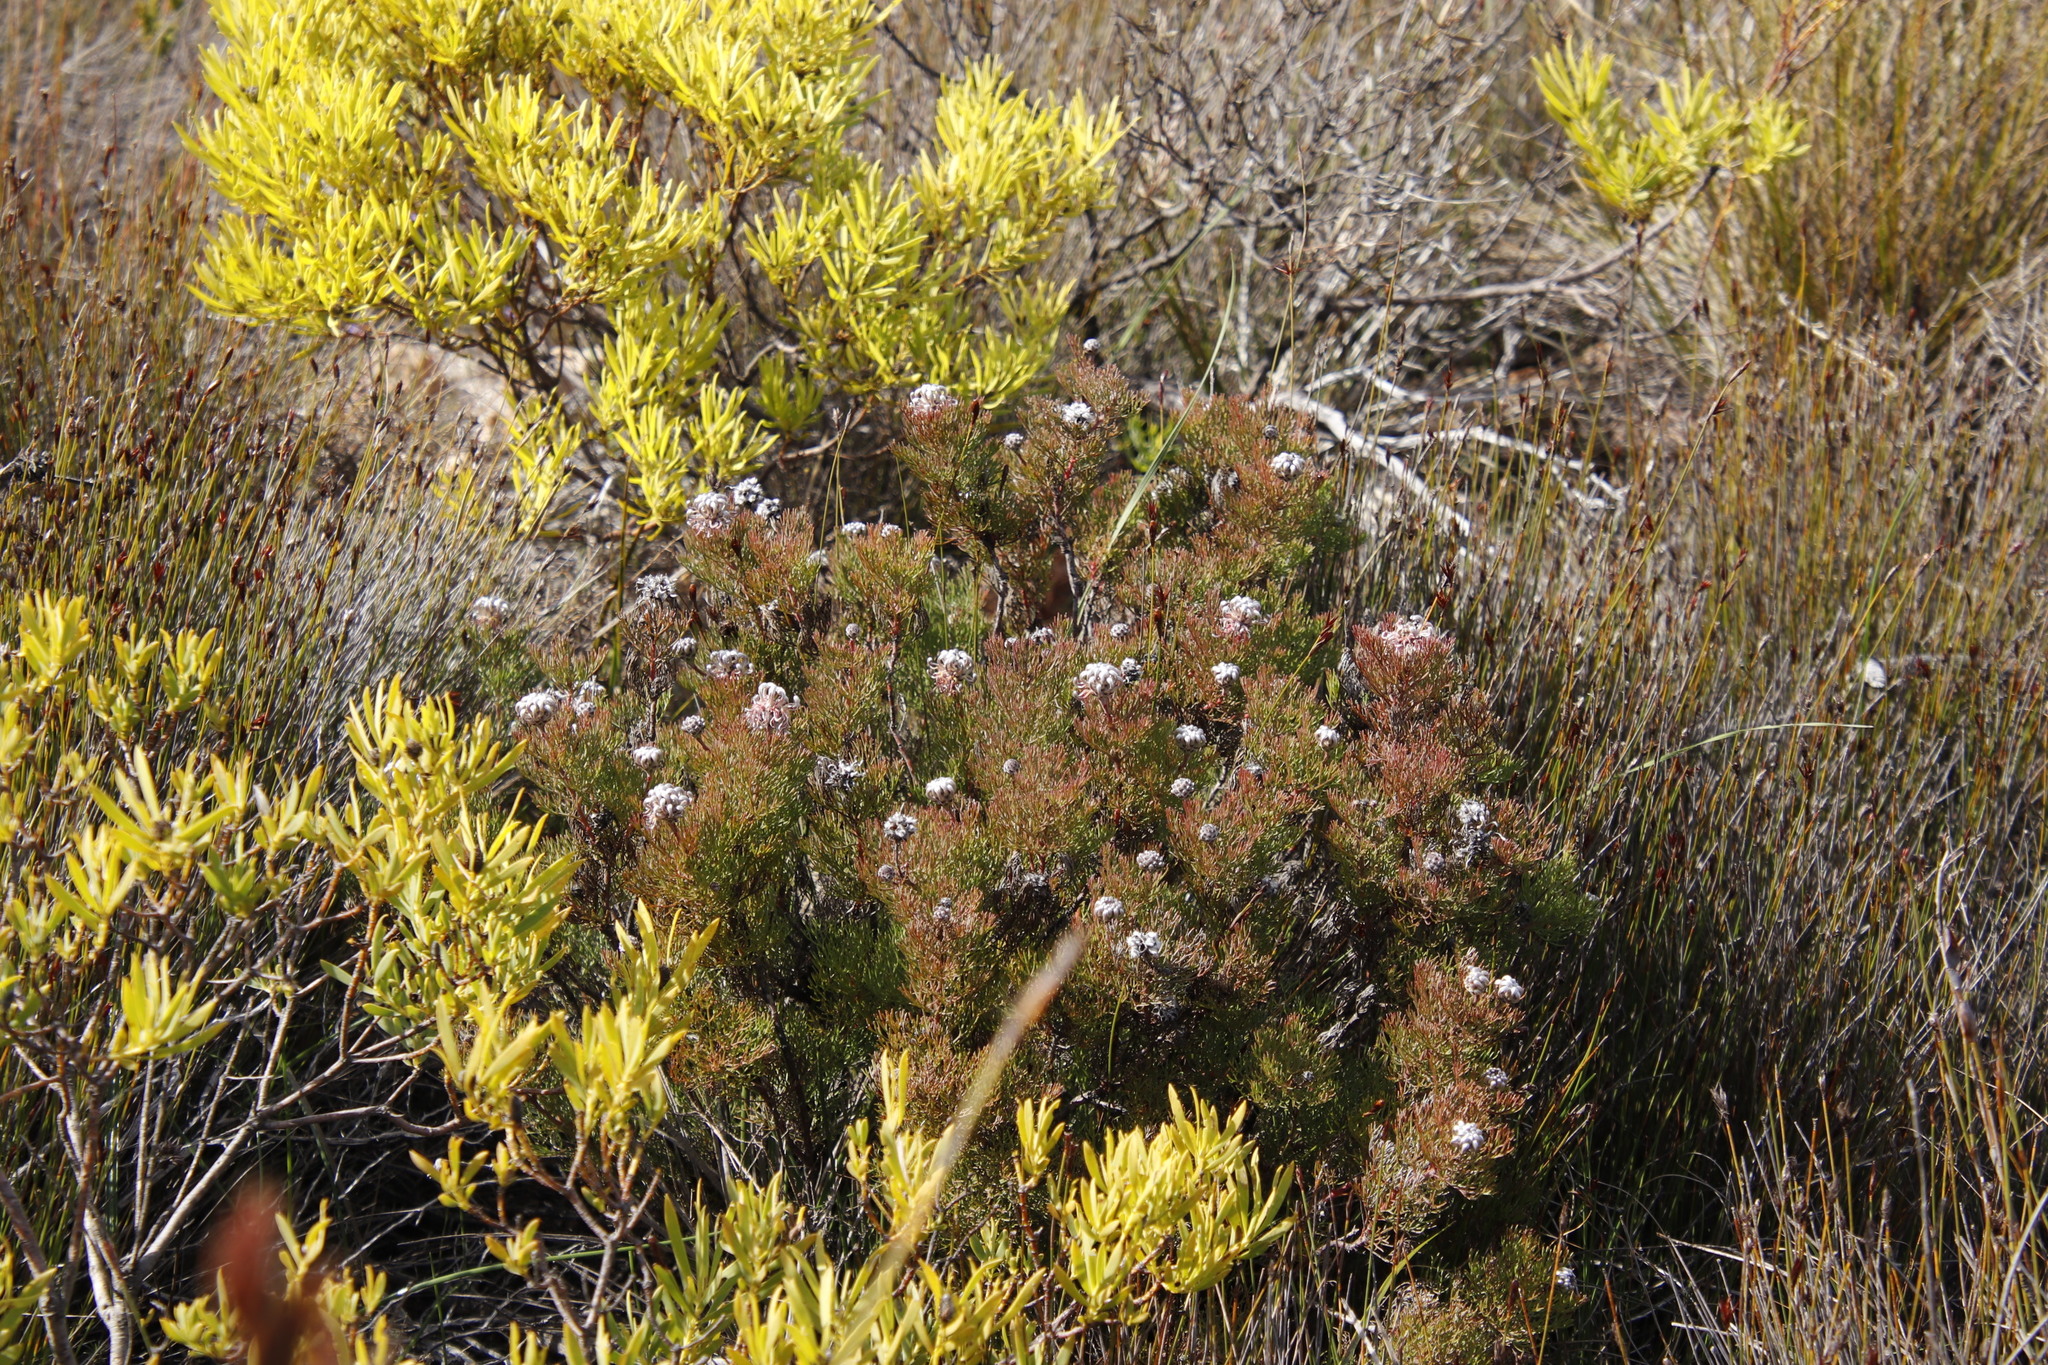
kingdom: Plantae
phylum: Tracheophyta
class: Magnoliopsida
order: Proteales
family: Proteaceae
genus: Serruria
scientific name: Serruria gremialis
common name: Riviersonderend spiderhead
